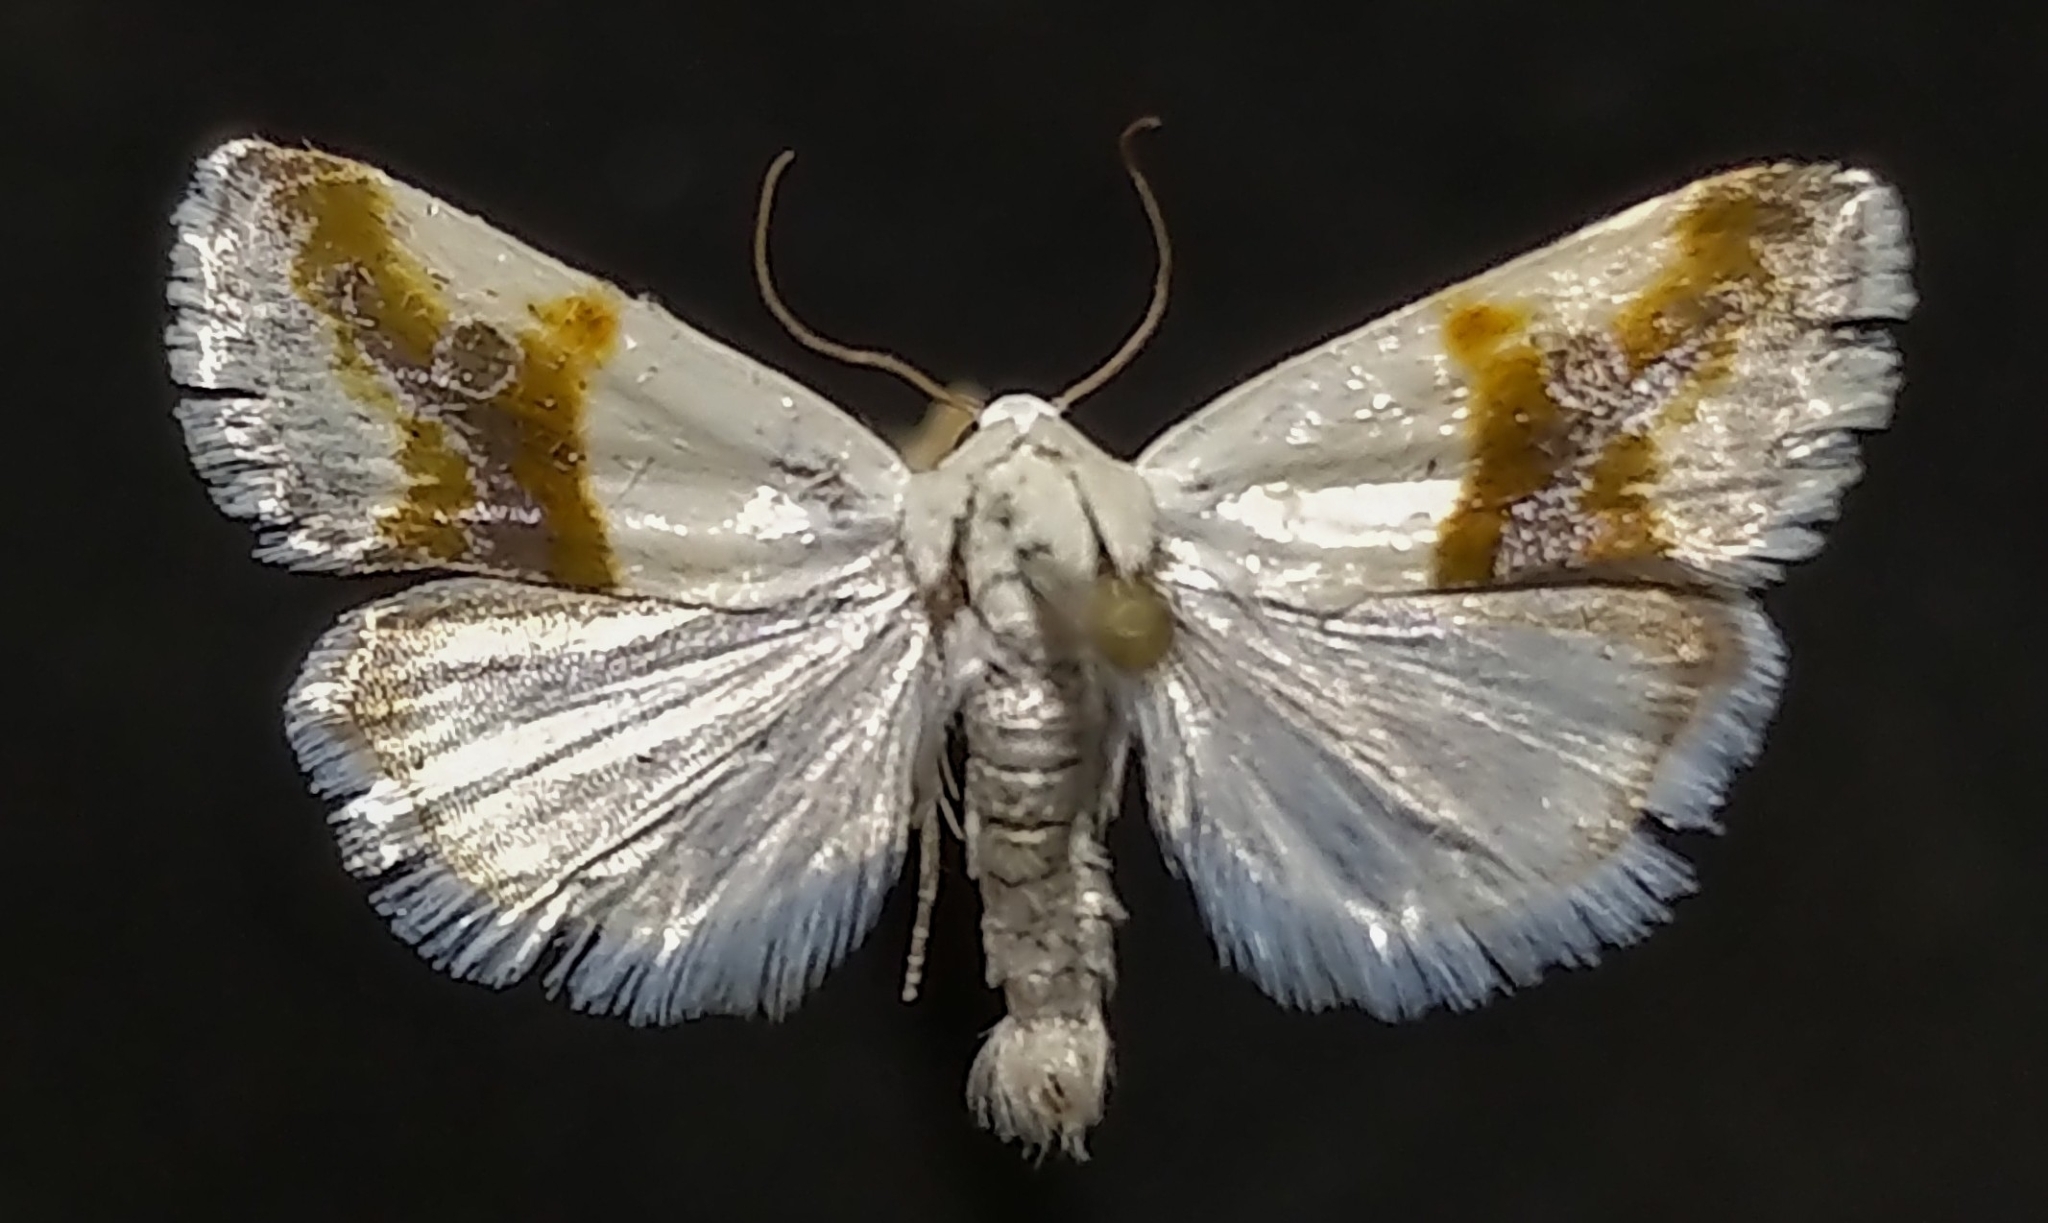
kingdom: Animalia
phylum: Arthropoda
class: Insecta
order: Lepidoptera
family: Noctuidae
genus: Acontia
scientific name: Acontia binocula
